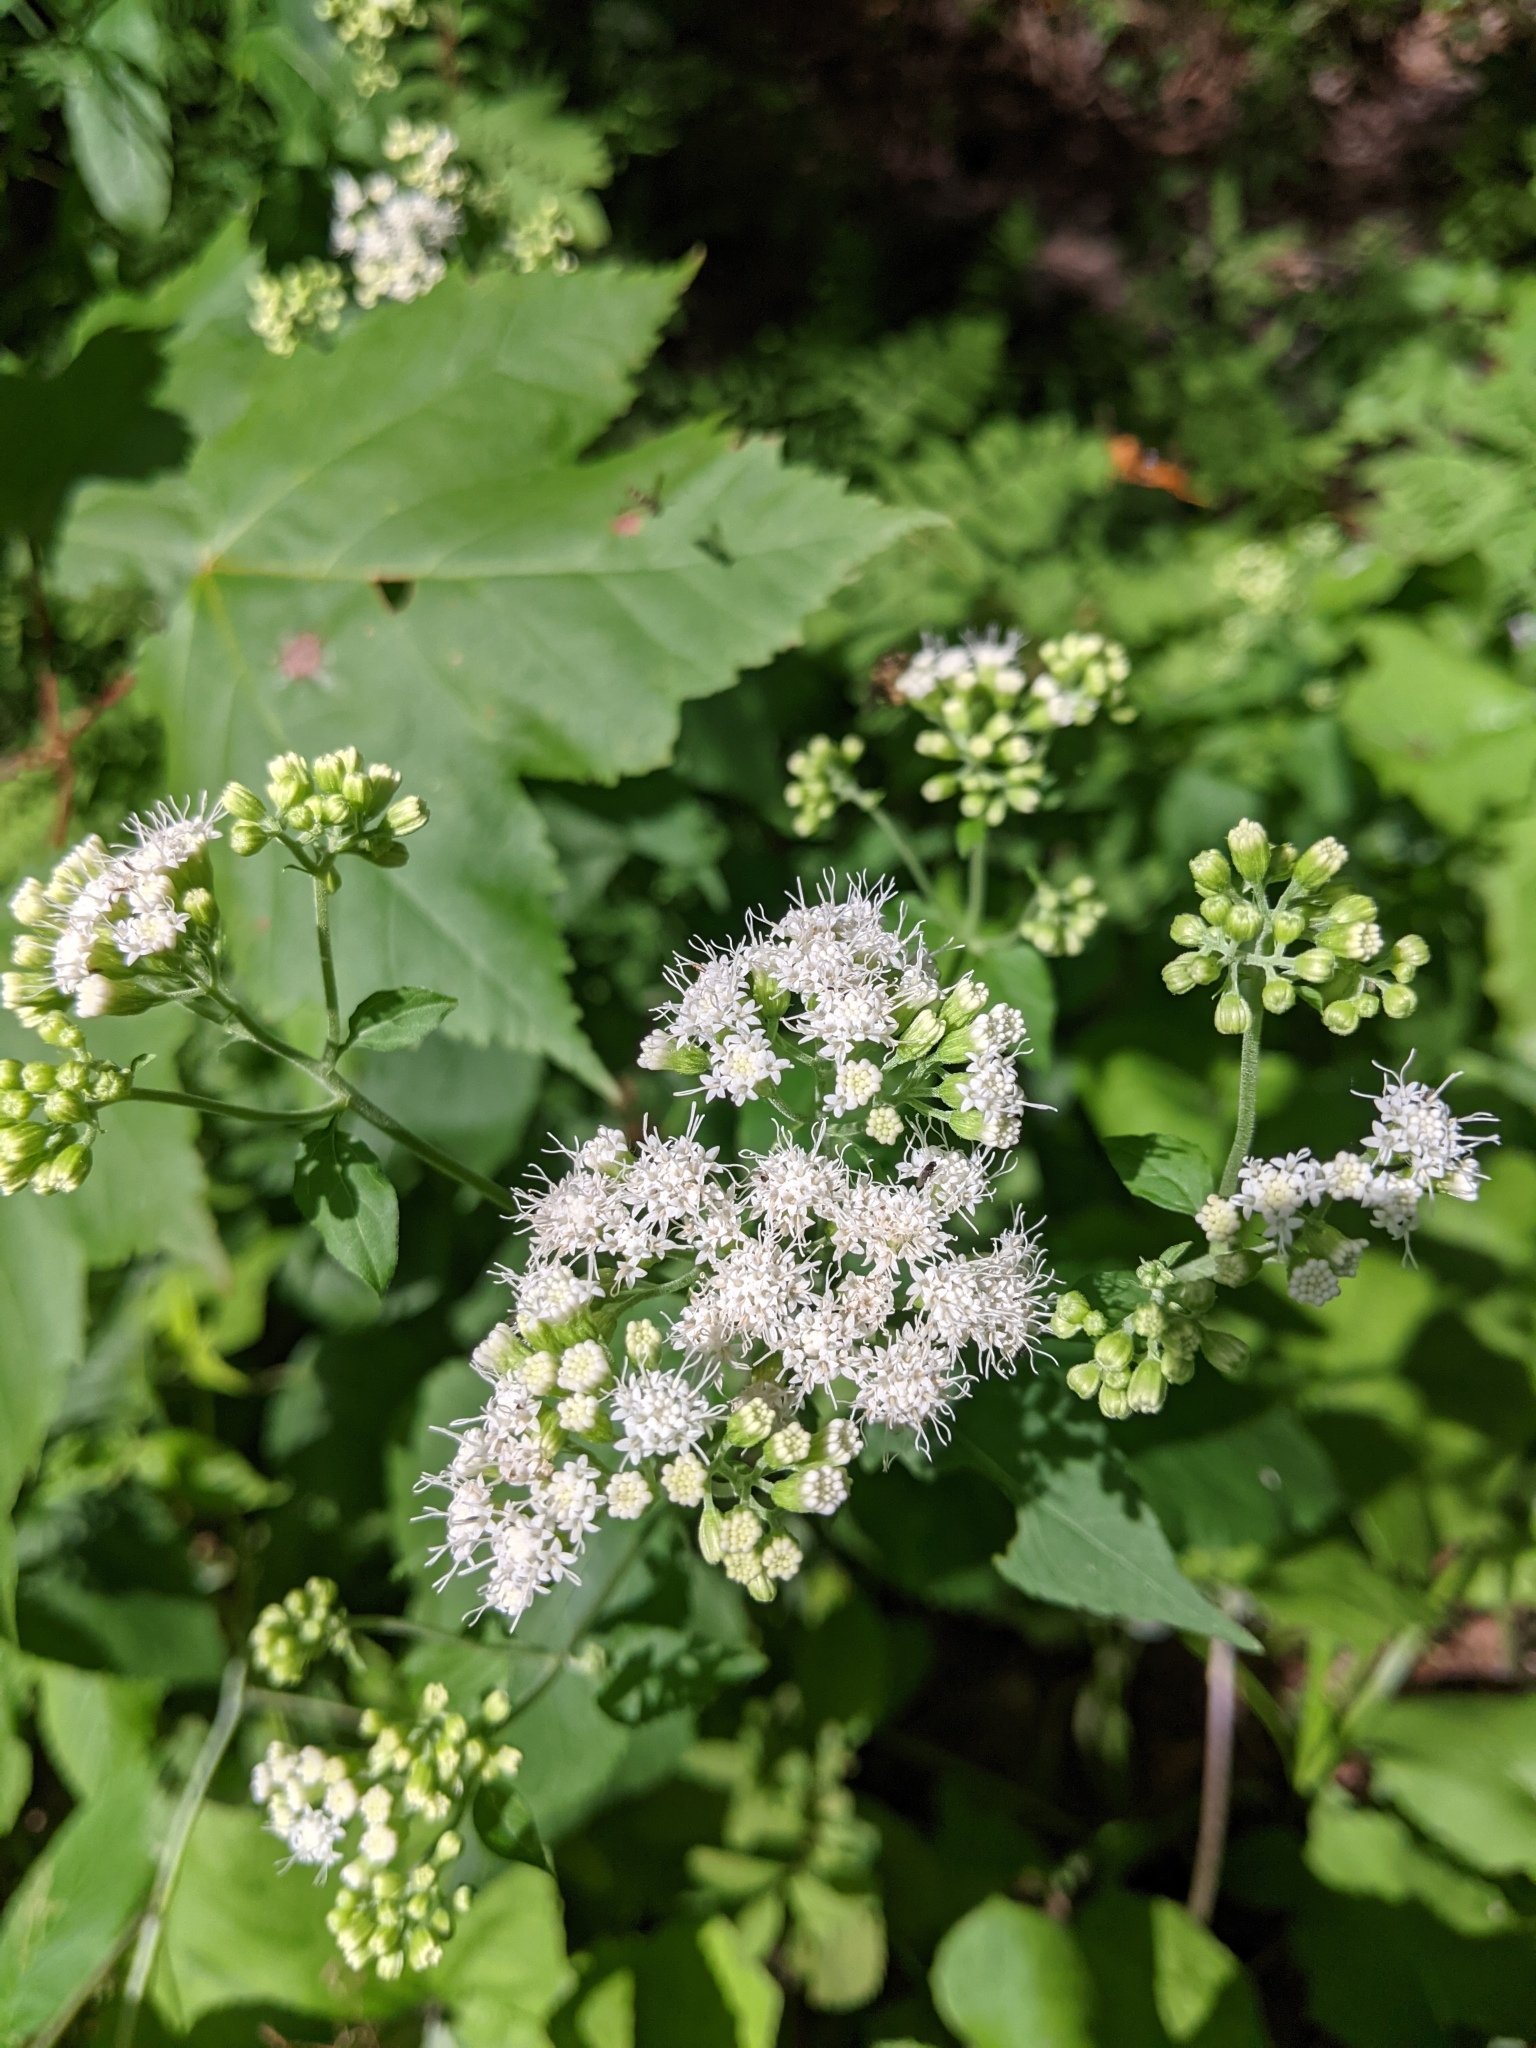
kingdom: Plantae
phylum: Tracheophyta
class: Magnoliopsida
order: Asterales
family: Asteraceae
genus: Ageratina
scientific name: Ageratina altissima
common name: White snakeroot
